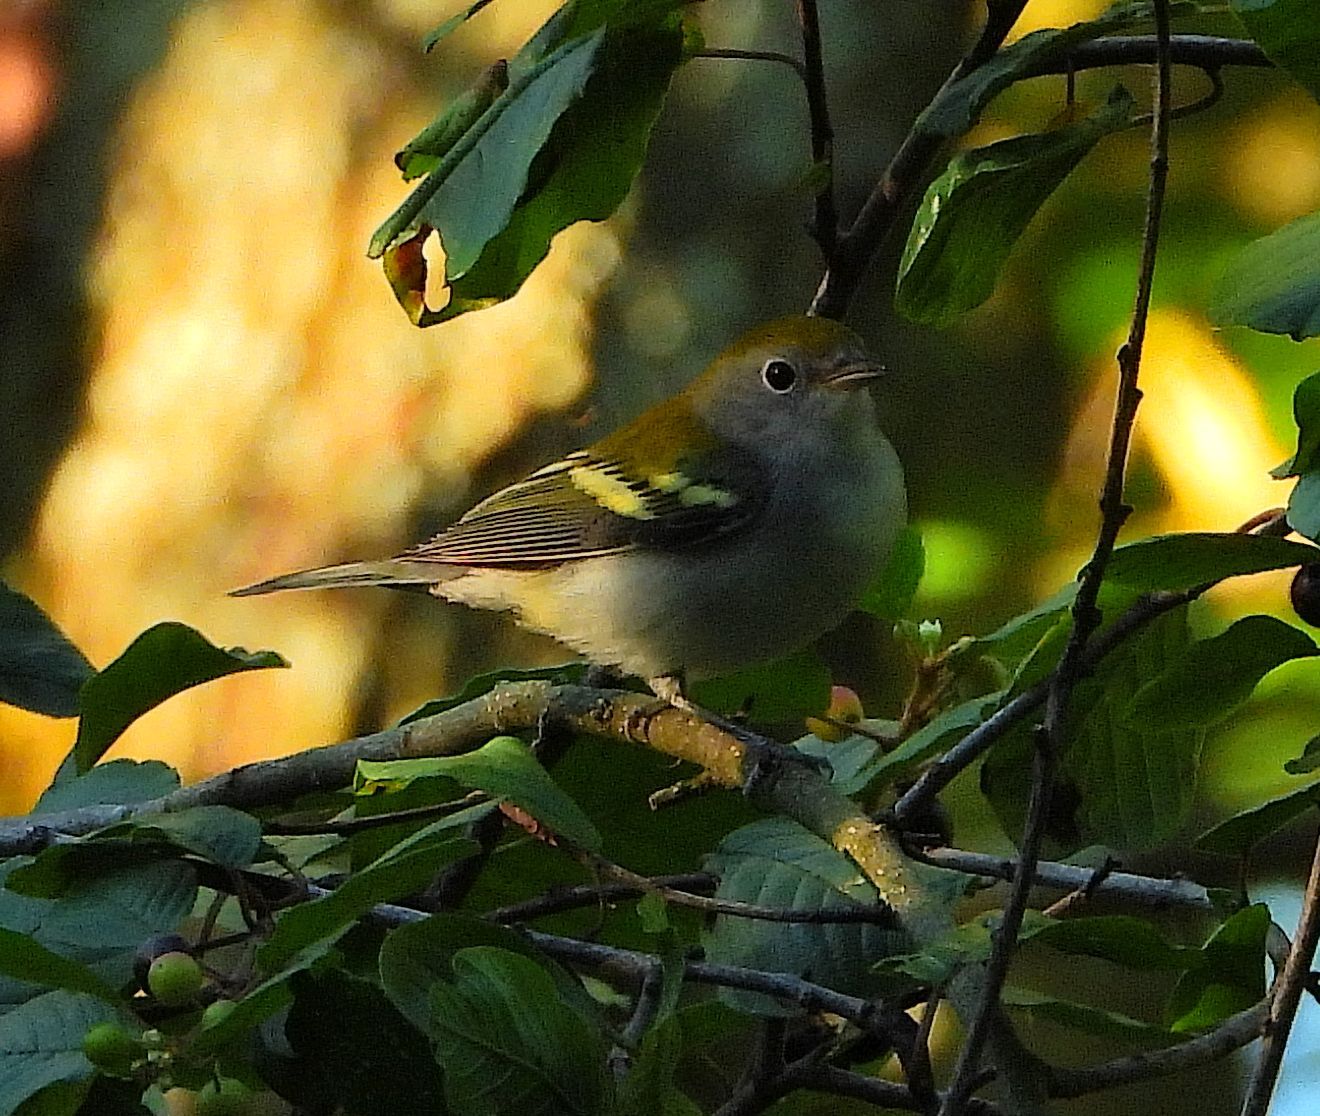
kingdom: Animalia
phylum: Chordata
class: Aves
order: Passeriformes
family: Parulidae
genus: Setophaga
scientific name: Setophaga pensylvanica
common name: Chestnut-sided warbler
